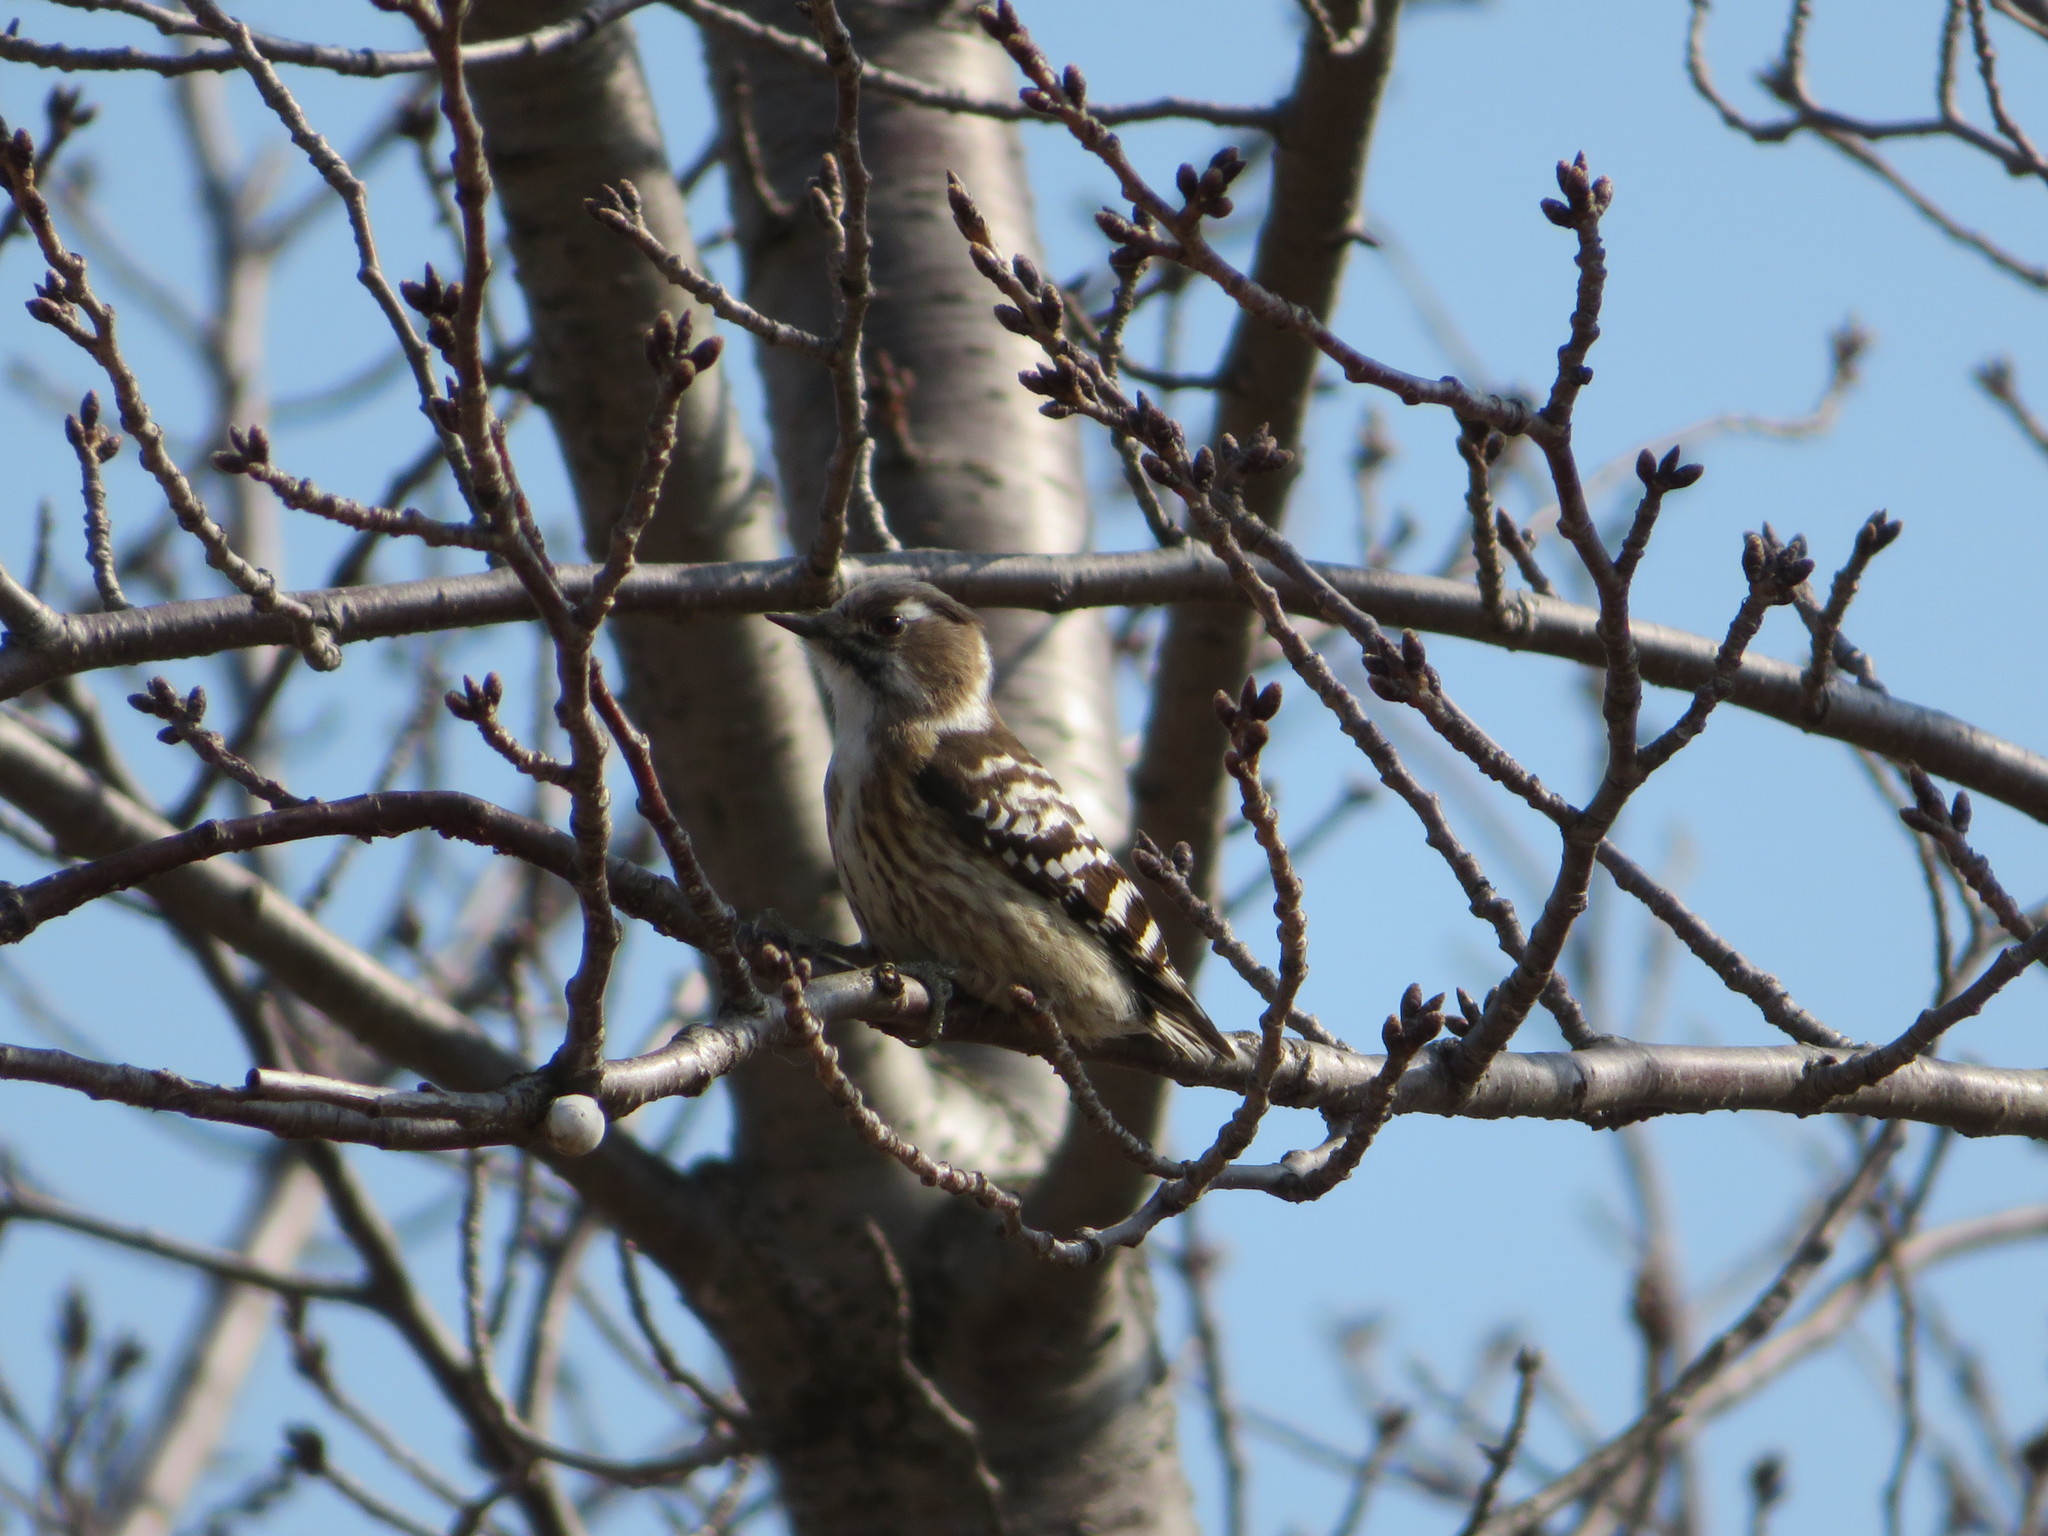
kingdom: Animalia
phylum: Chordata
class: Aves
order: Piciformes
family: Picidae
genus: Yungipicus
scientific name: Yungipicus kizuki
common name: Japanese pygmy woodpecker
